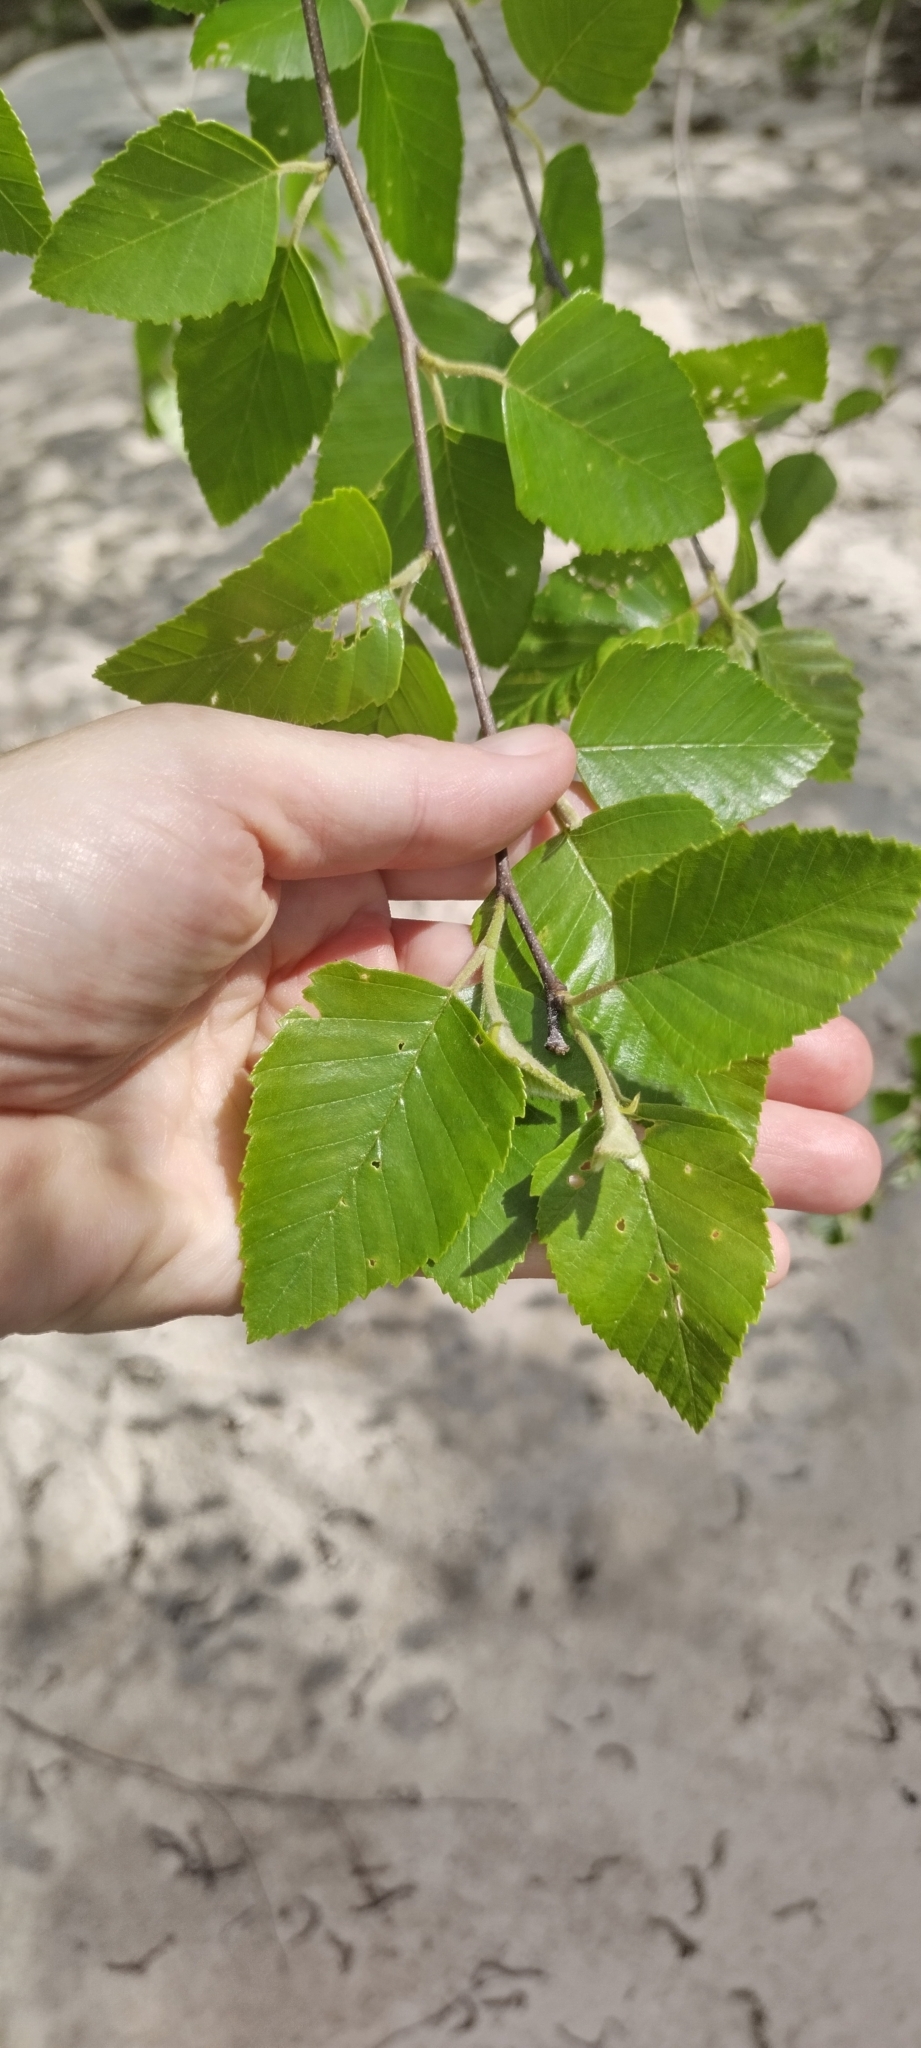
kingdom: Plantae
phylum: Tracheophyta
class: Magnoliopsida
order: Fagales
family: Betulaceae
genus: Betula
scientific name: Betula nigra
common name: Black birch
